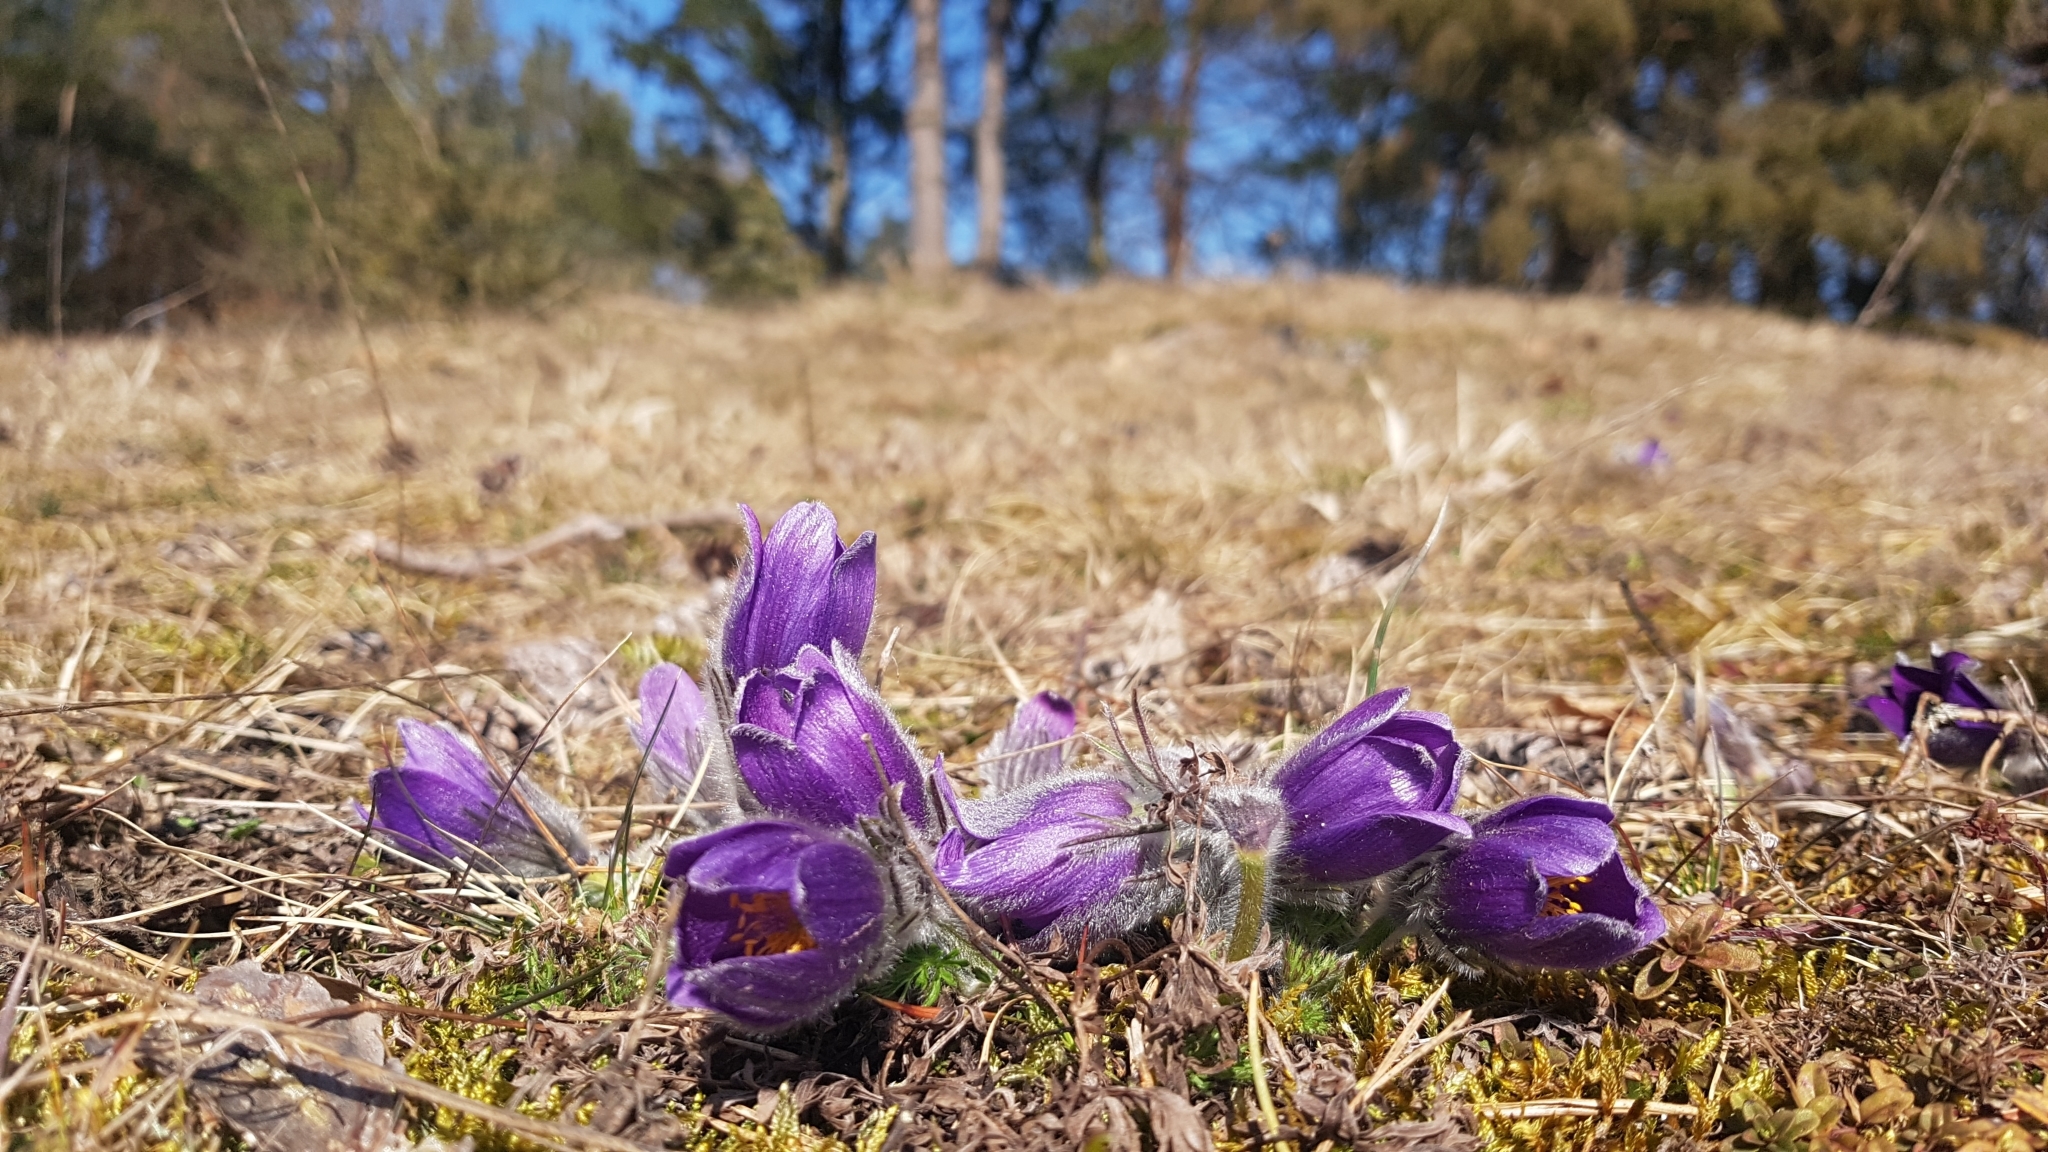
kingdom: Plantae
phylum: Tracheophyta
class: Magnoliopsida
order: Ranunculales
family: Ranunculaceae
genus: Pulsatilla
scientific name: Pulsatilla vulgaris
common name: Pasqueflower
